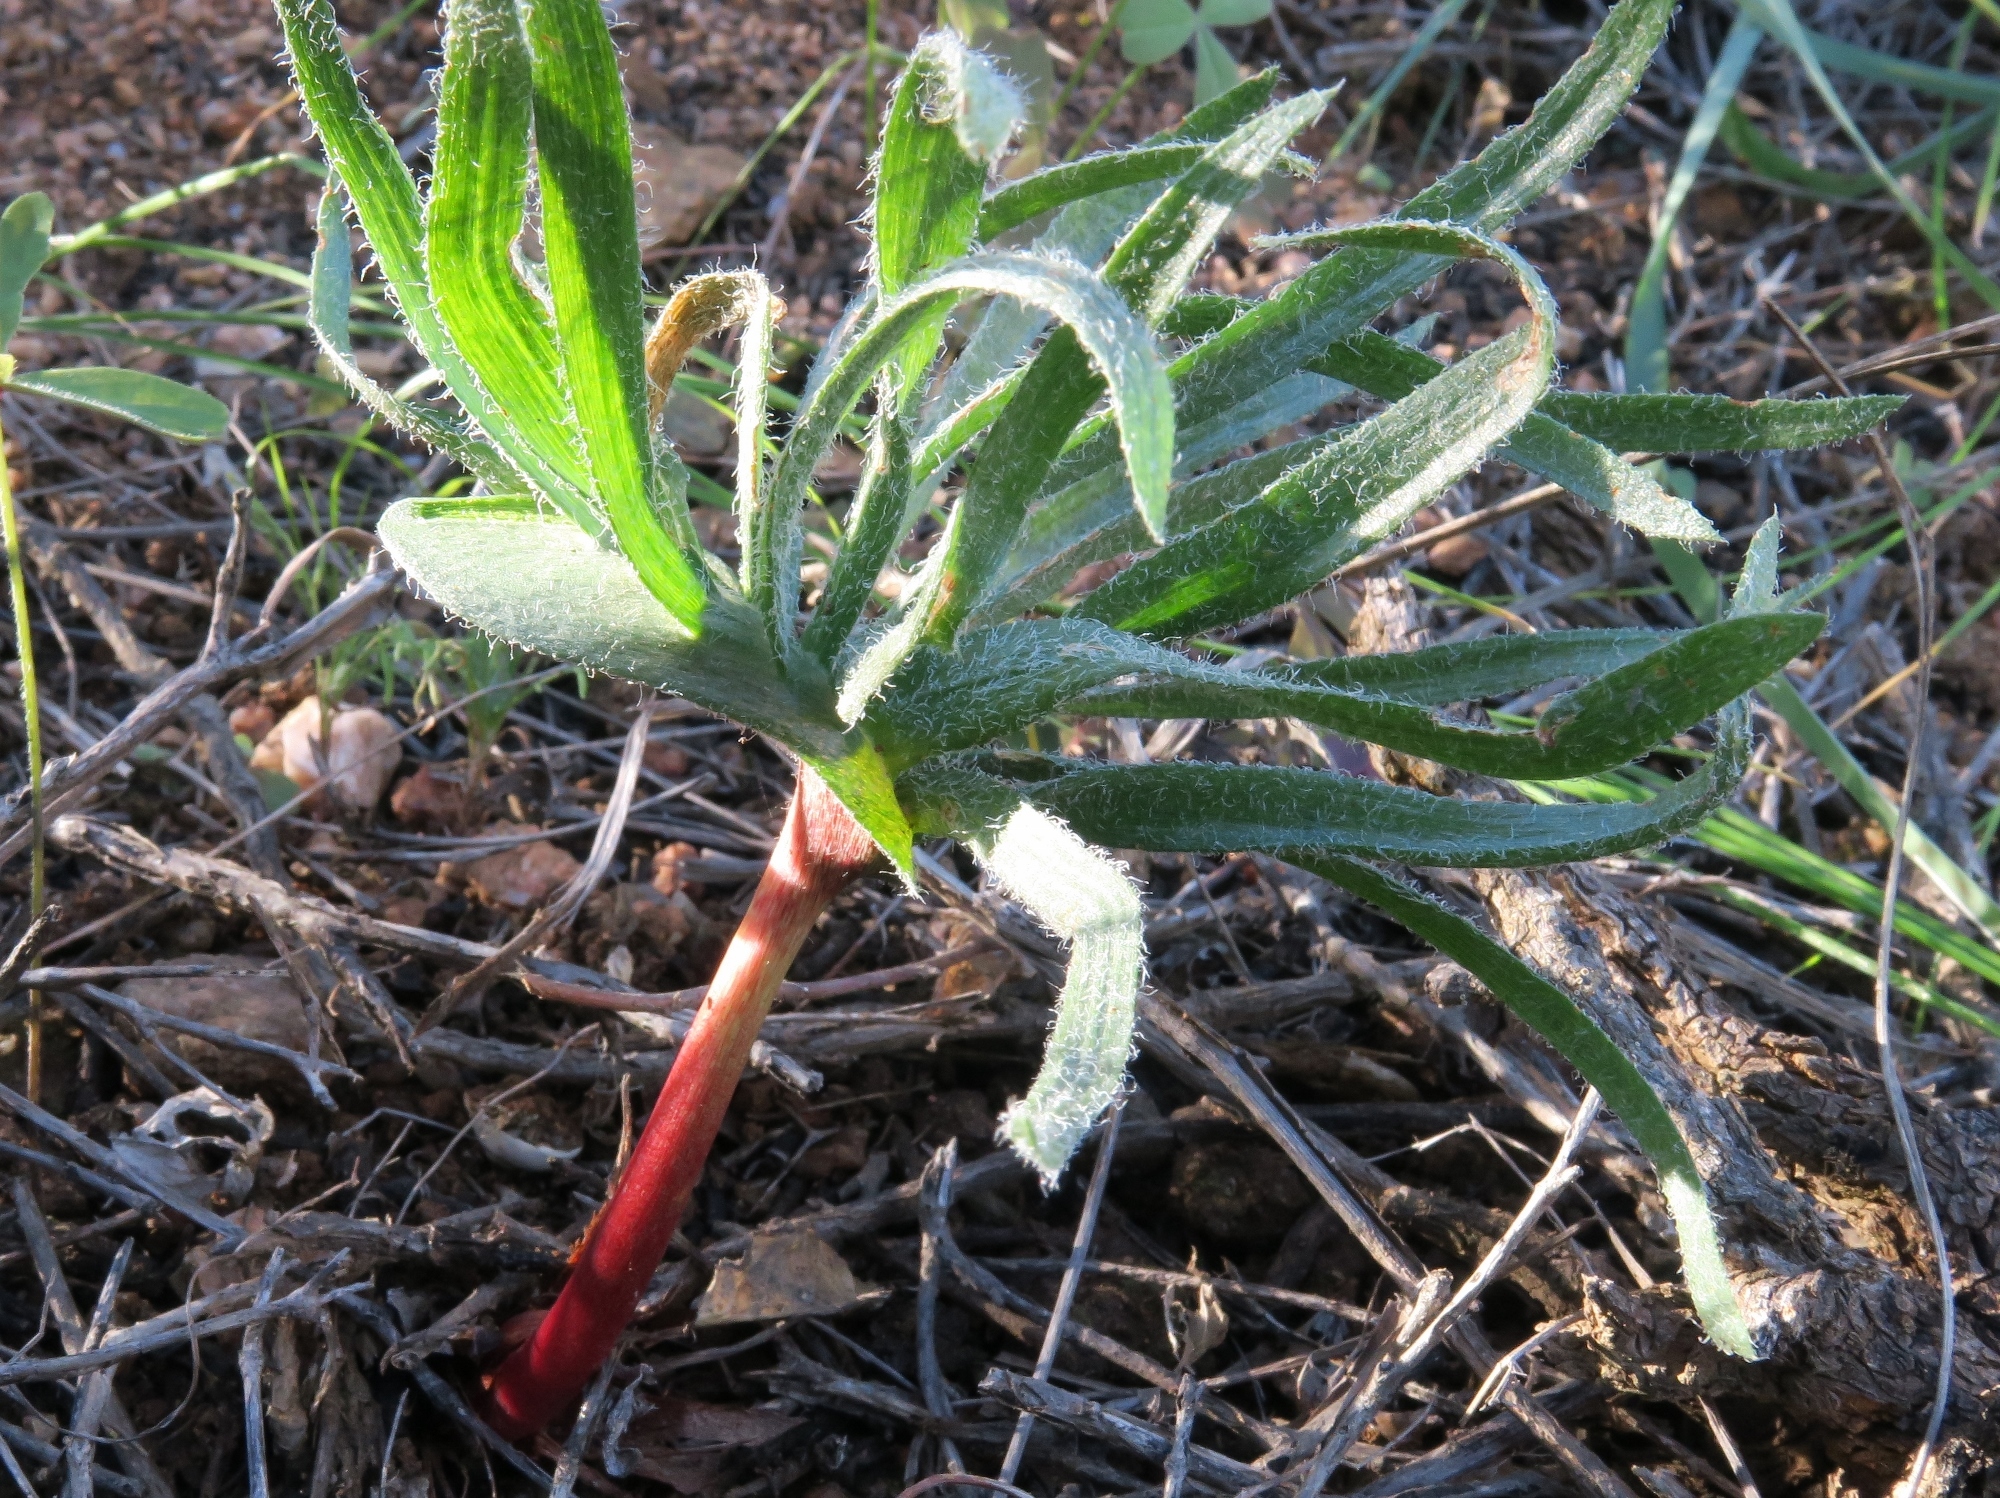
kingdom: Plantae
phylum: Tracheophyta
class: Liliopsida
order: Asparagales
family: Asparagaceae
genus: Eriospermum
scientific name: Eriospermum alcicorne
